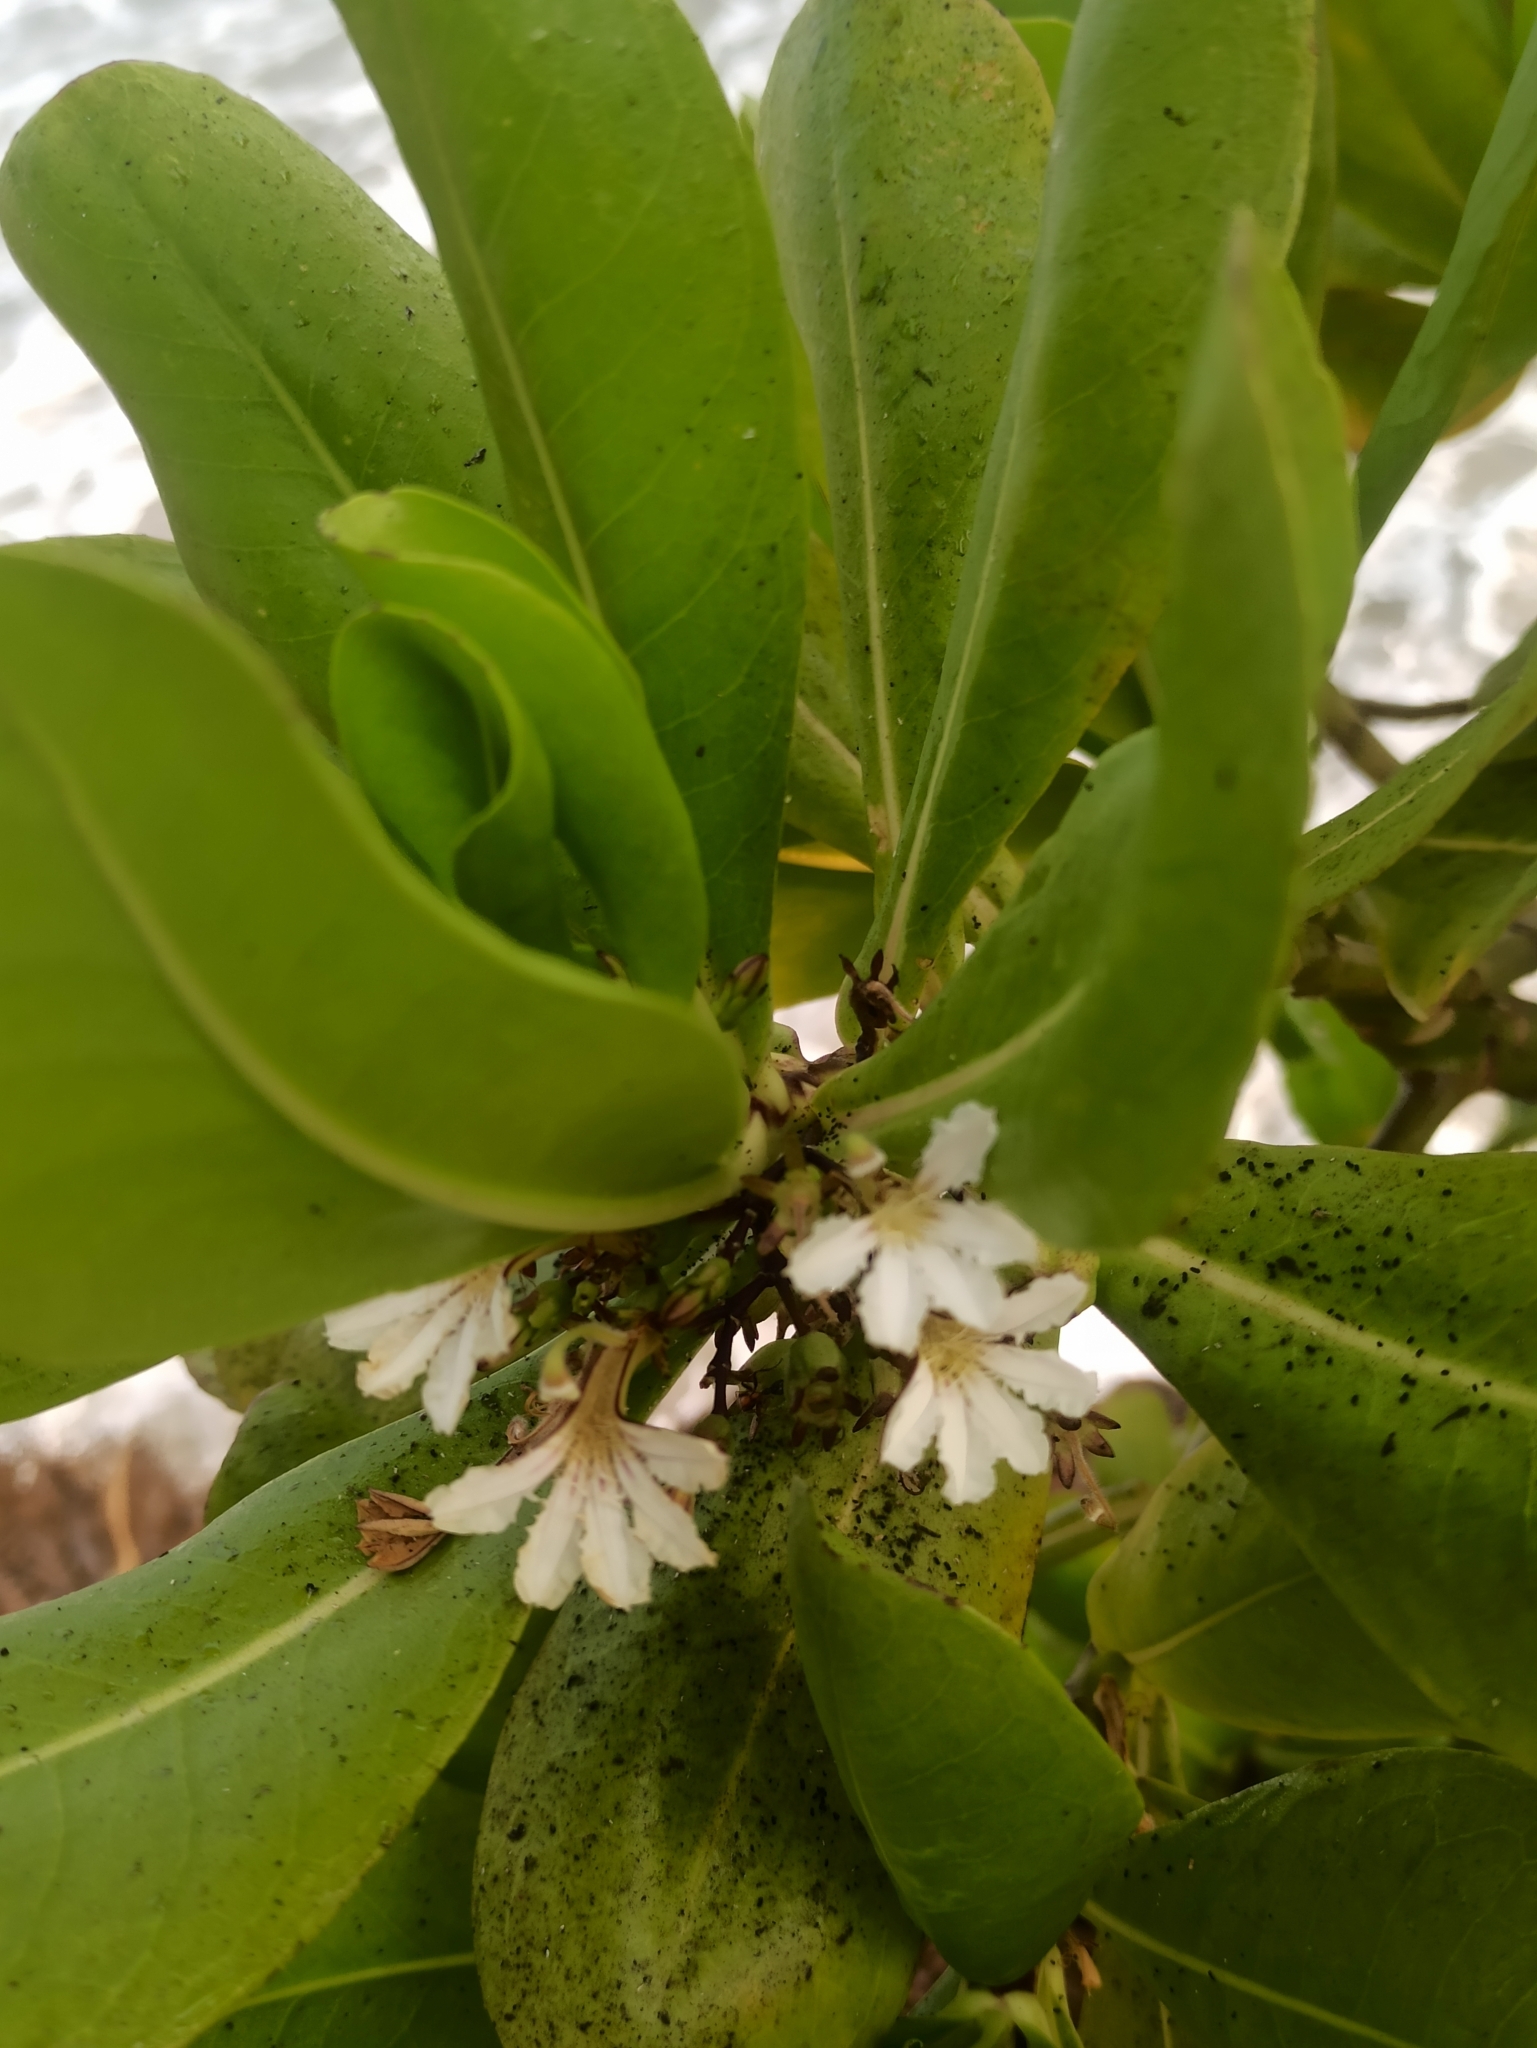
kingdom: Plantae
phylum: Tracheophyta
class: Magnoliopsida
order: Asterales
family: Goodeniaceae
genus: Scaevola
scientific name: Scaevola taccada
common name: Sea lettucetree
